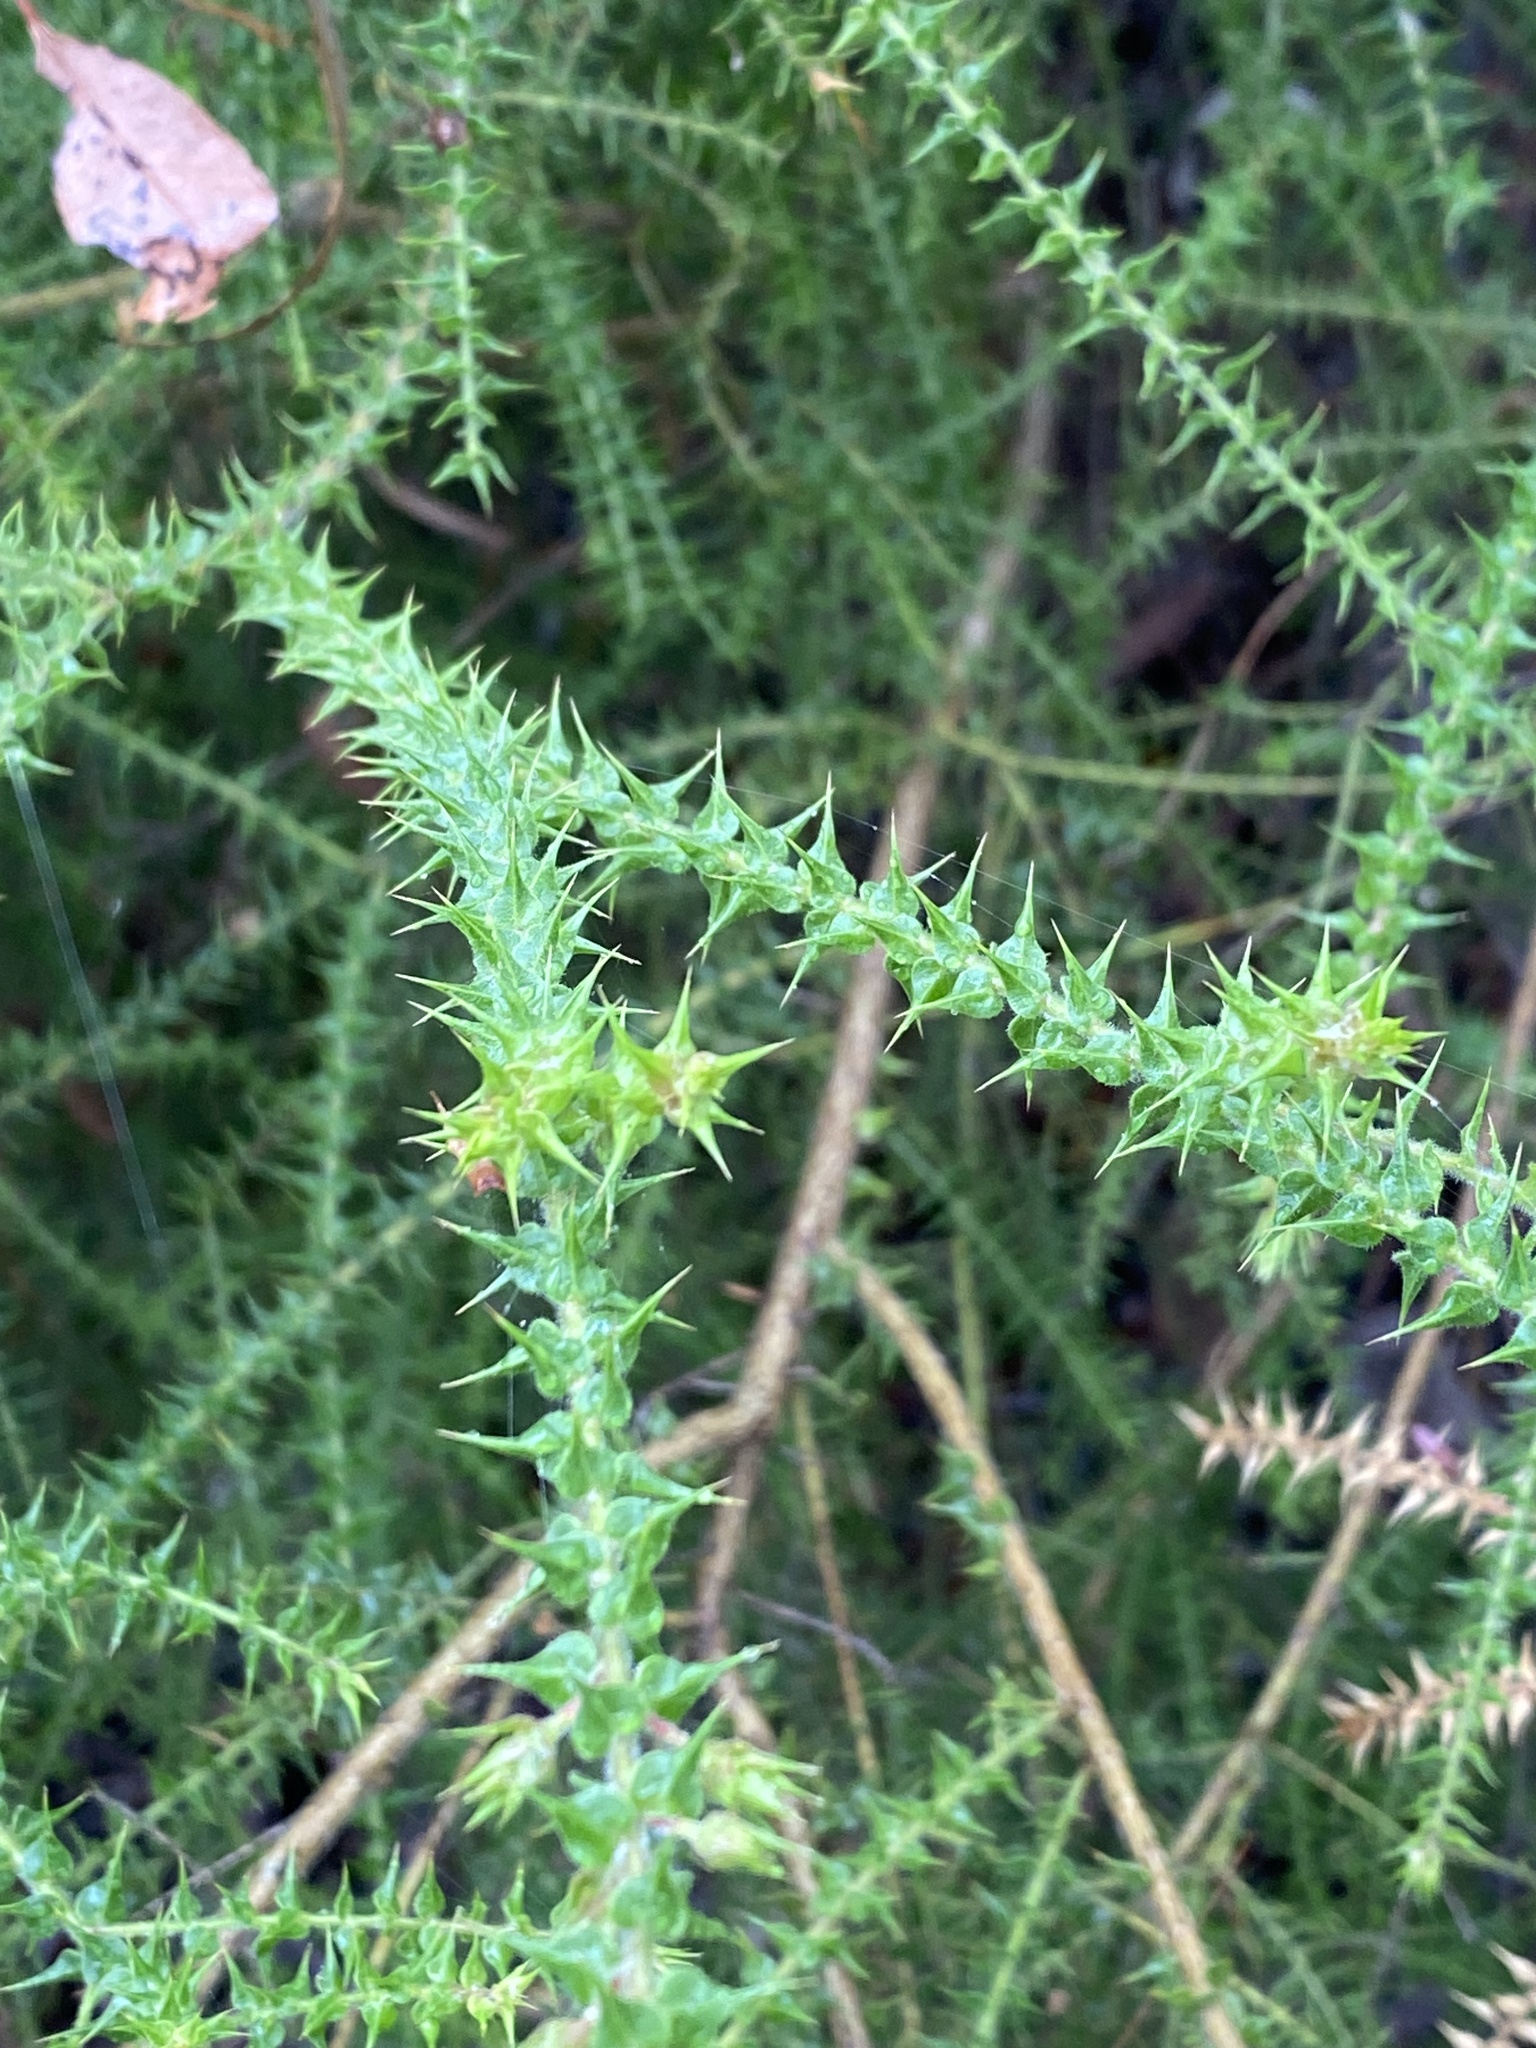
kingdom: Plantae
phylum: Tracheophyta
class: Magnoliopsida
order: Fabales
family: Fabaceae
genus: Daviesia
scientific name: Daviesia villifera
